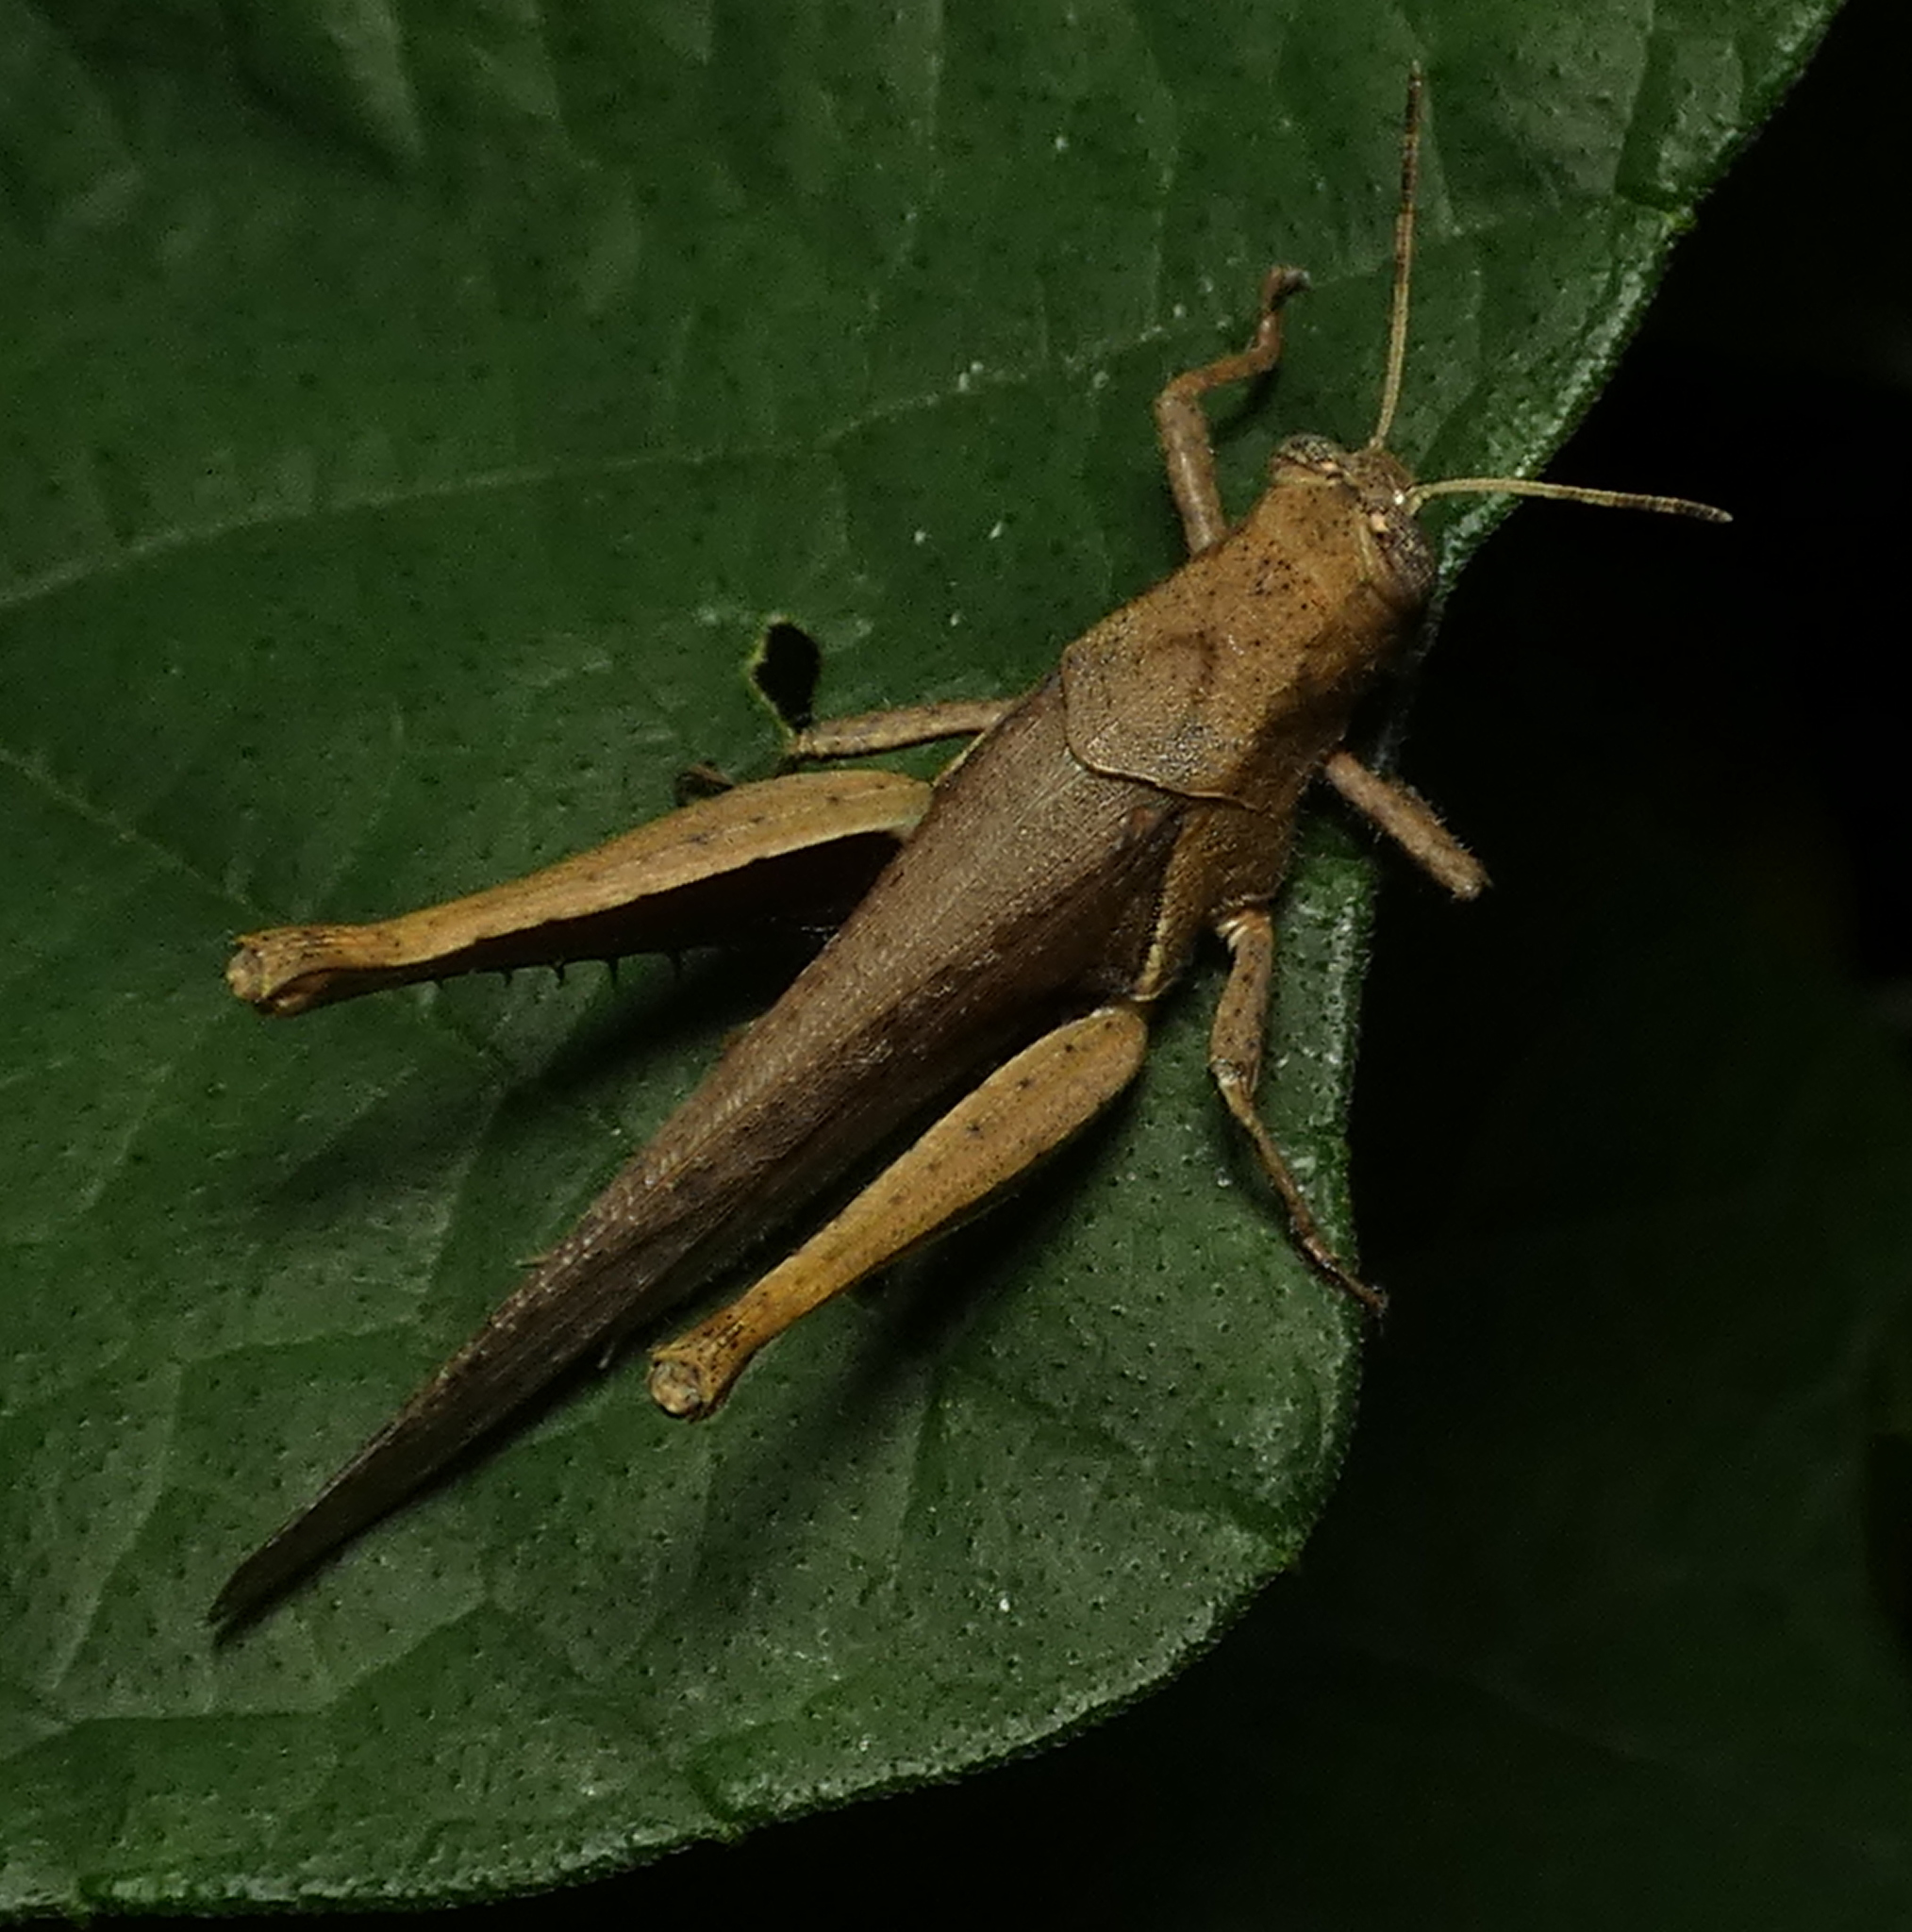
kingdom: Animalia
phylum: Arthropoda
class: Insecta
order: Orthoptera
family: Acrididae
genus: Abracris
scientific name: Abracris flavolineata
